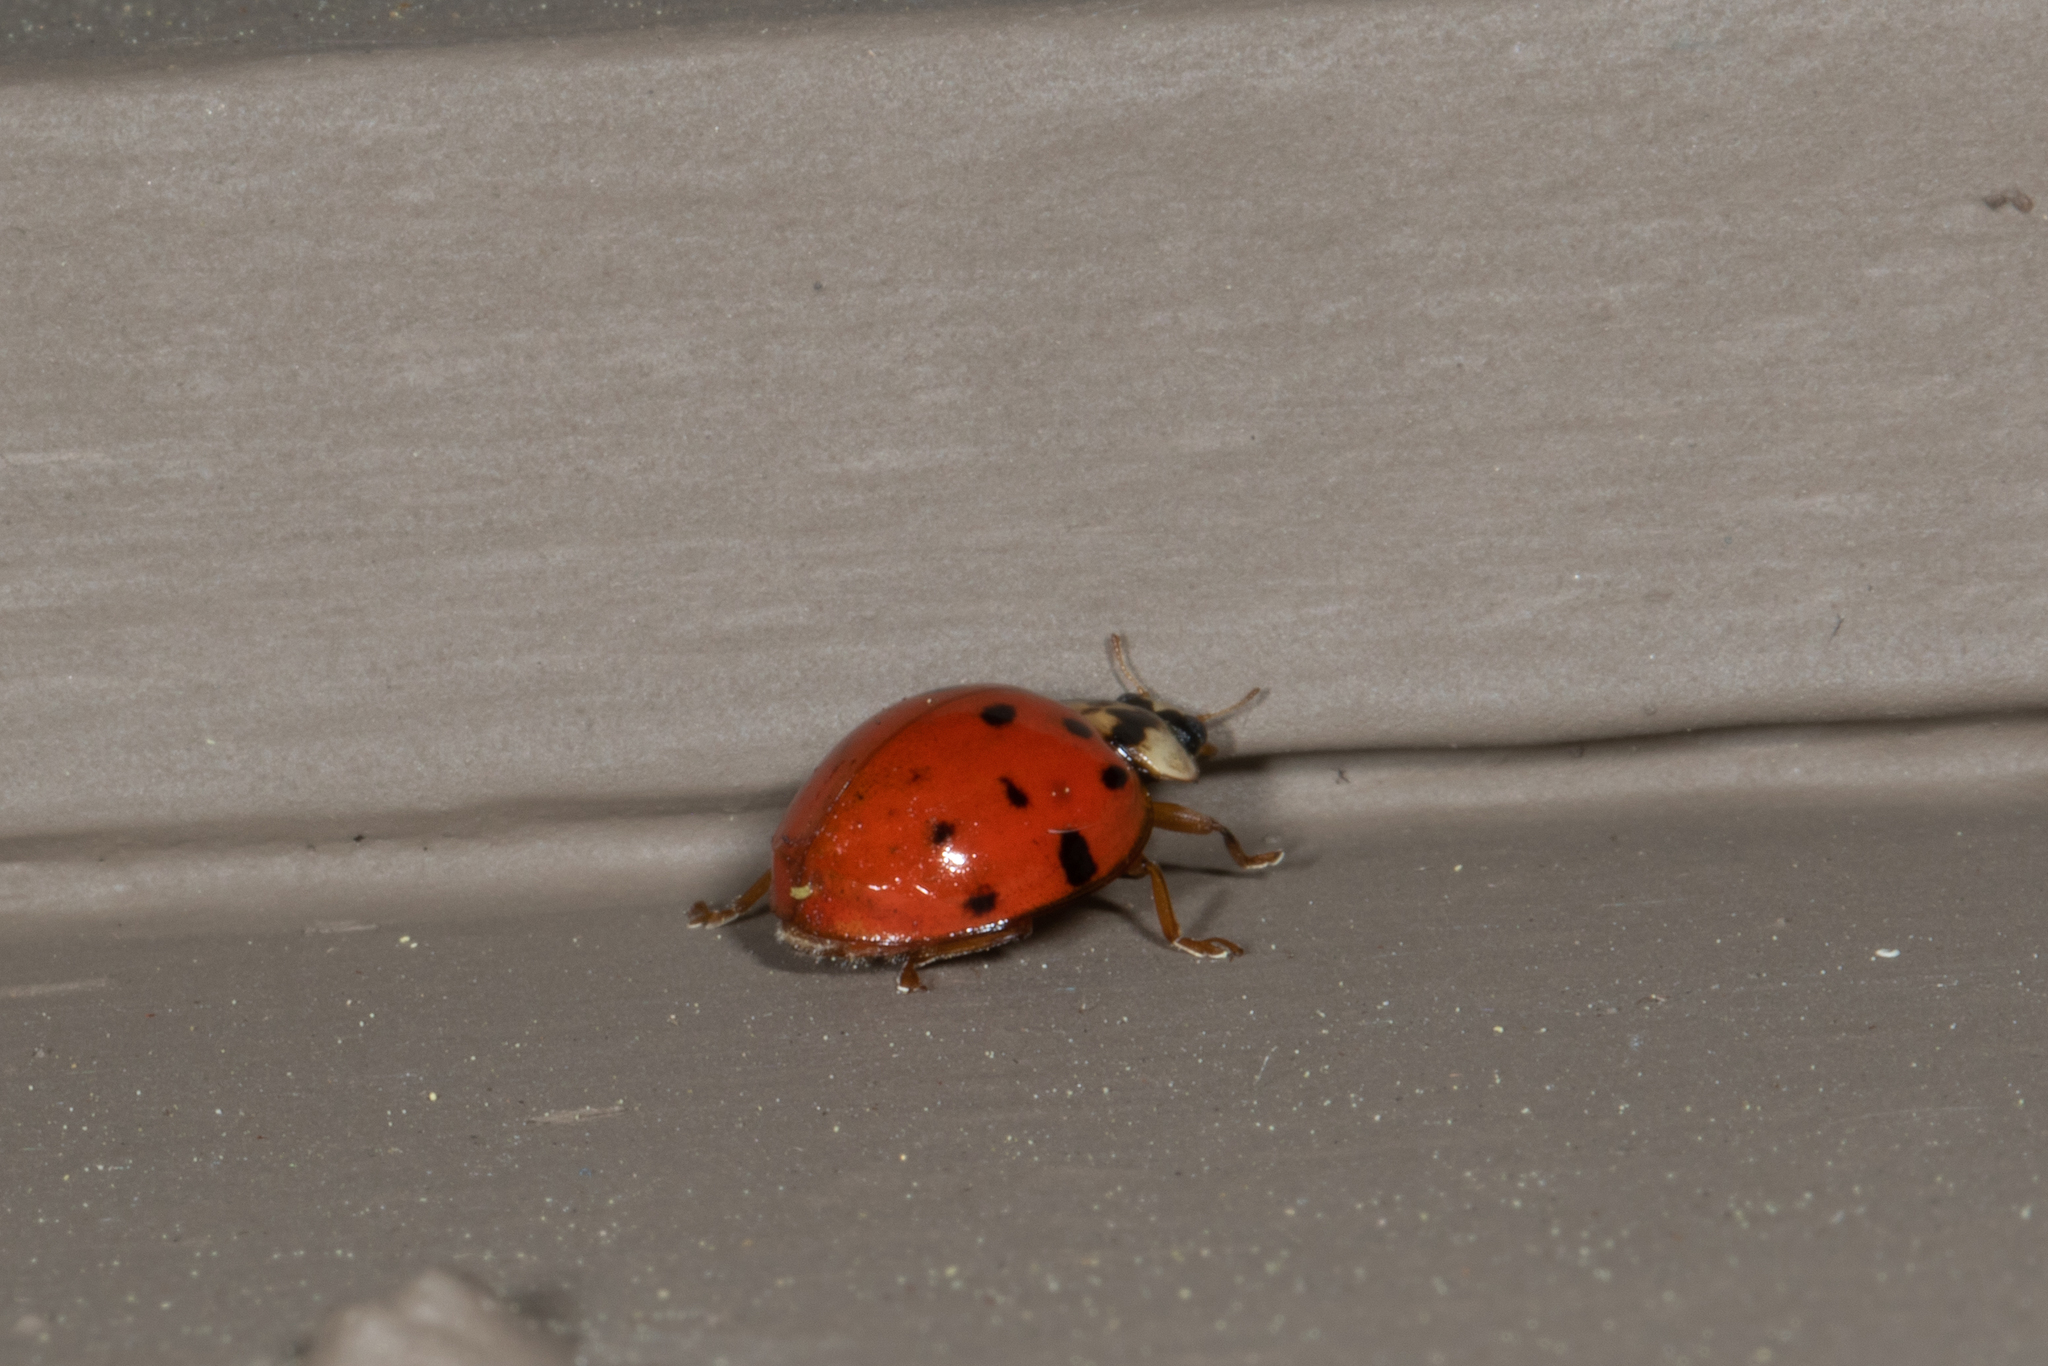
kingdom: Animalia
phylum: Arthropoda
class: Insecta
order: Coleoptera
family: Coccinellidae
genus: Harmonia
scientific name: Harmonia axyridis
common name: Harlequin ladybird
